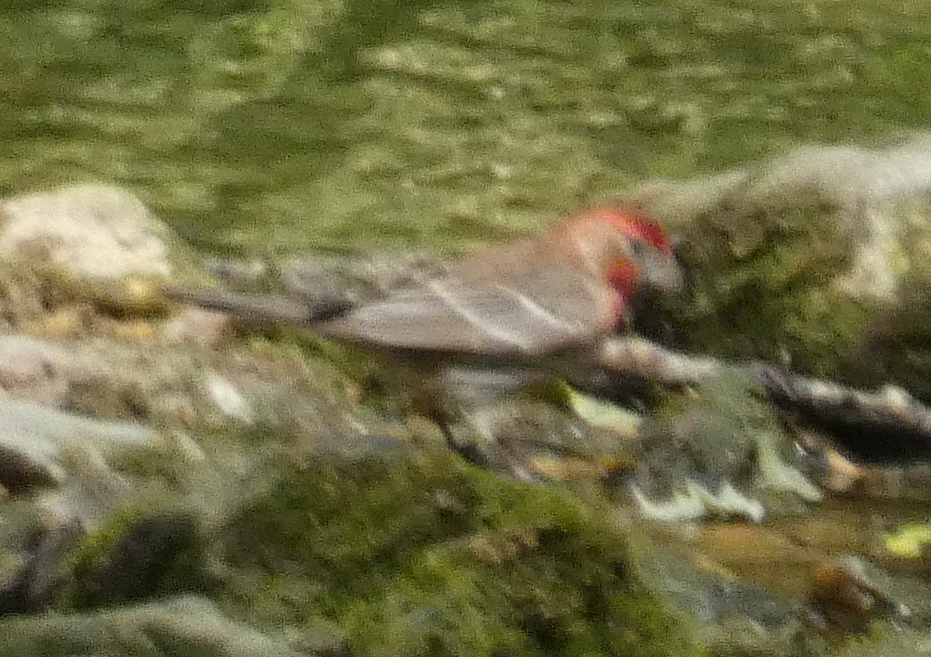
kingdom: Animalia
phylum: Chordata
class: Aves
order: Passeriformes
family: Fringillidae
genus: Haemorhous
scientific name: Haemorhous mexicanus
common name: House finch
